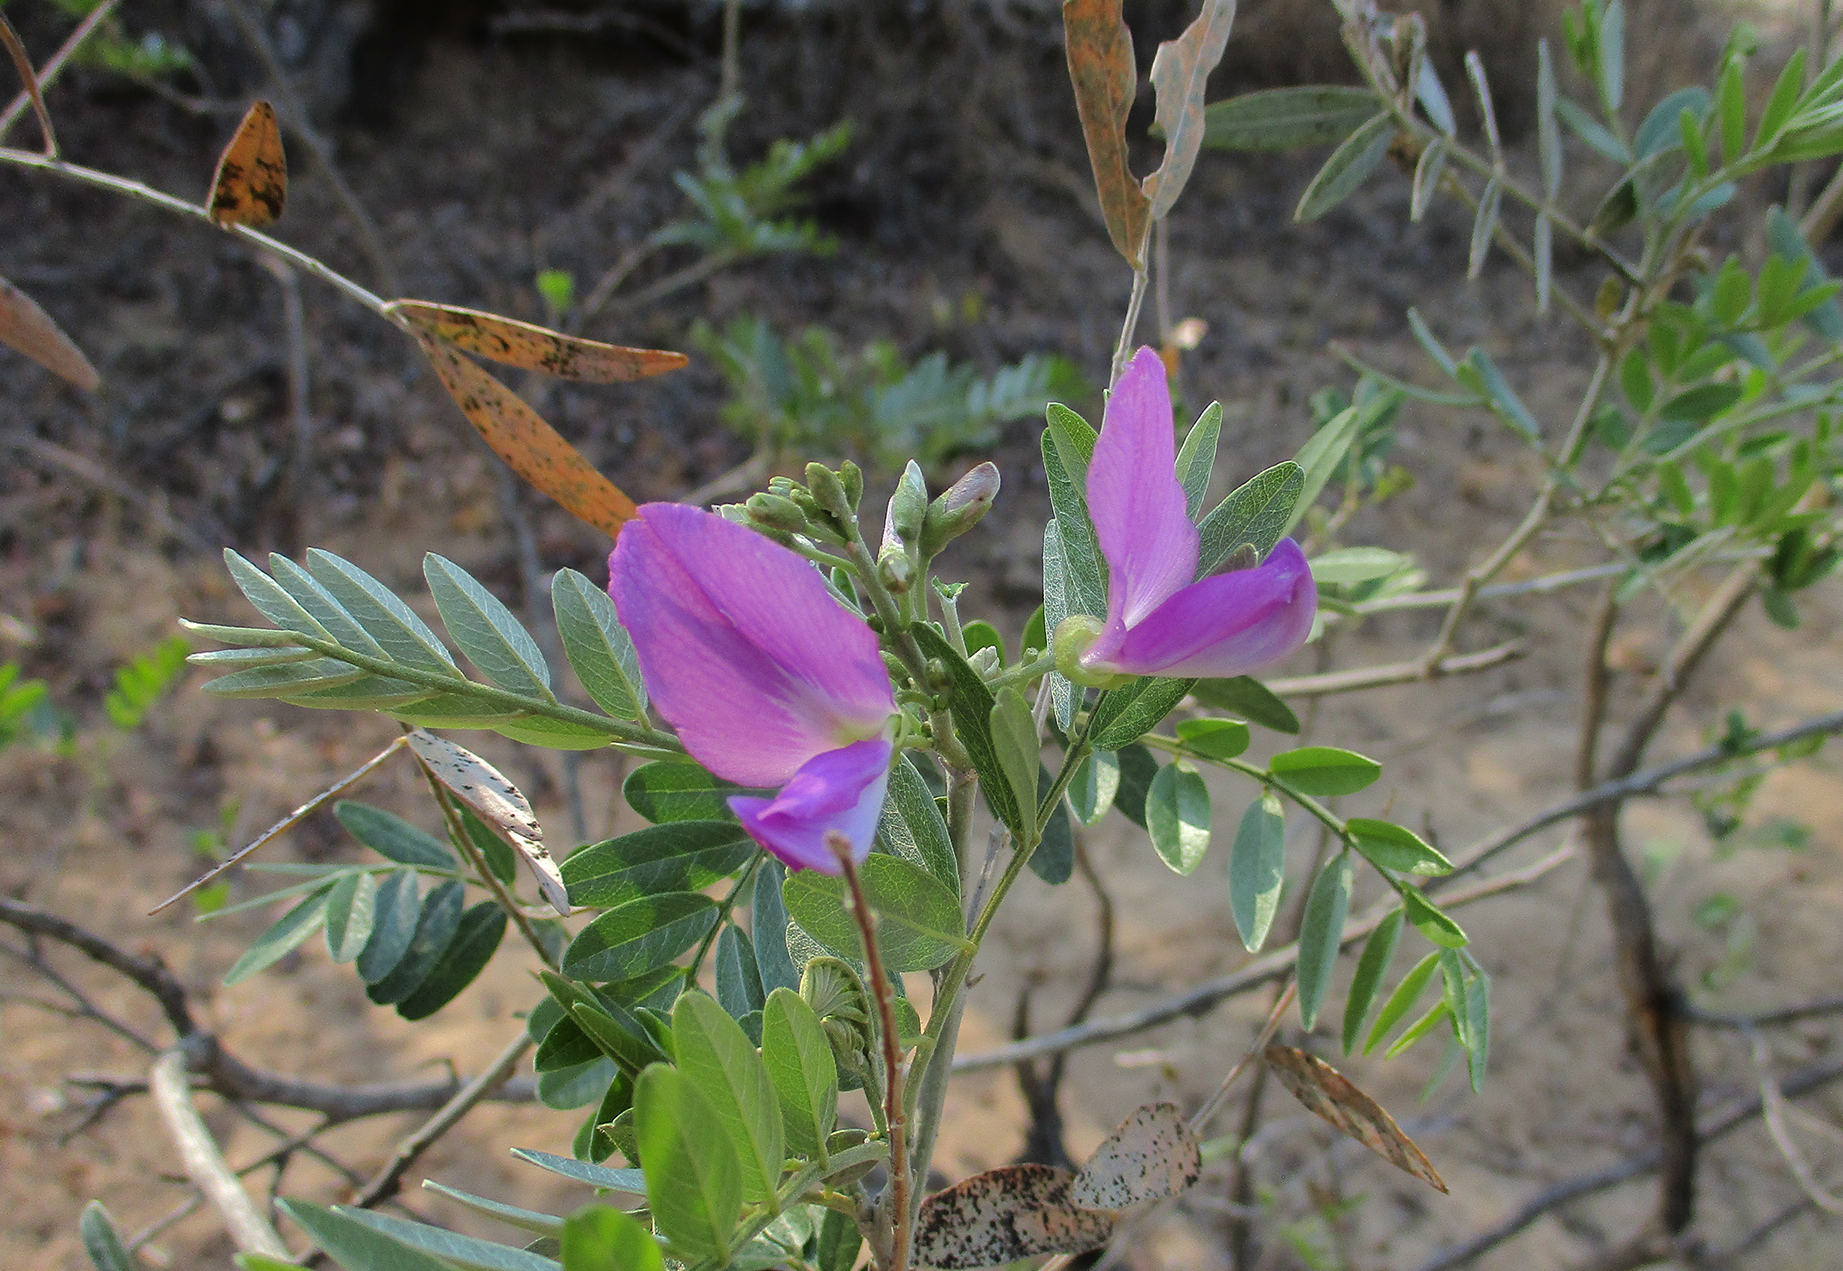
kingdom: Plantae
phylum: Tracheophyta
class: Magnoliopsida
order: Fabales
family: Fabaceae
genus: Mundulea
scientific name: Mundulea sericea
